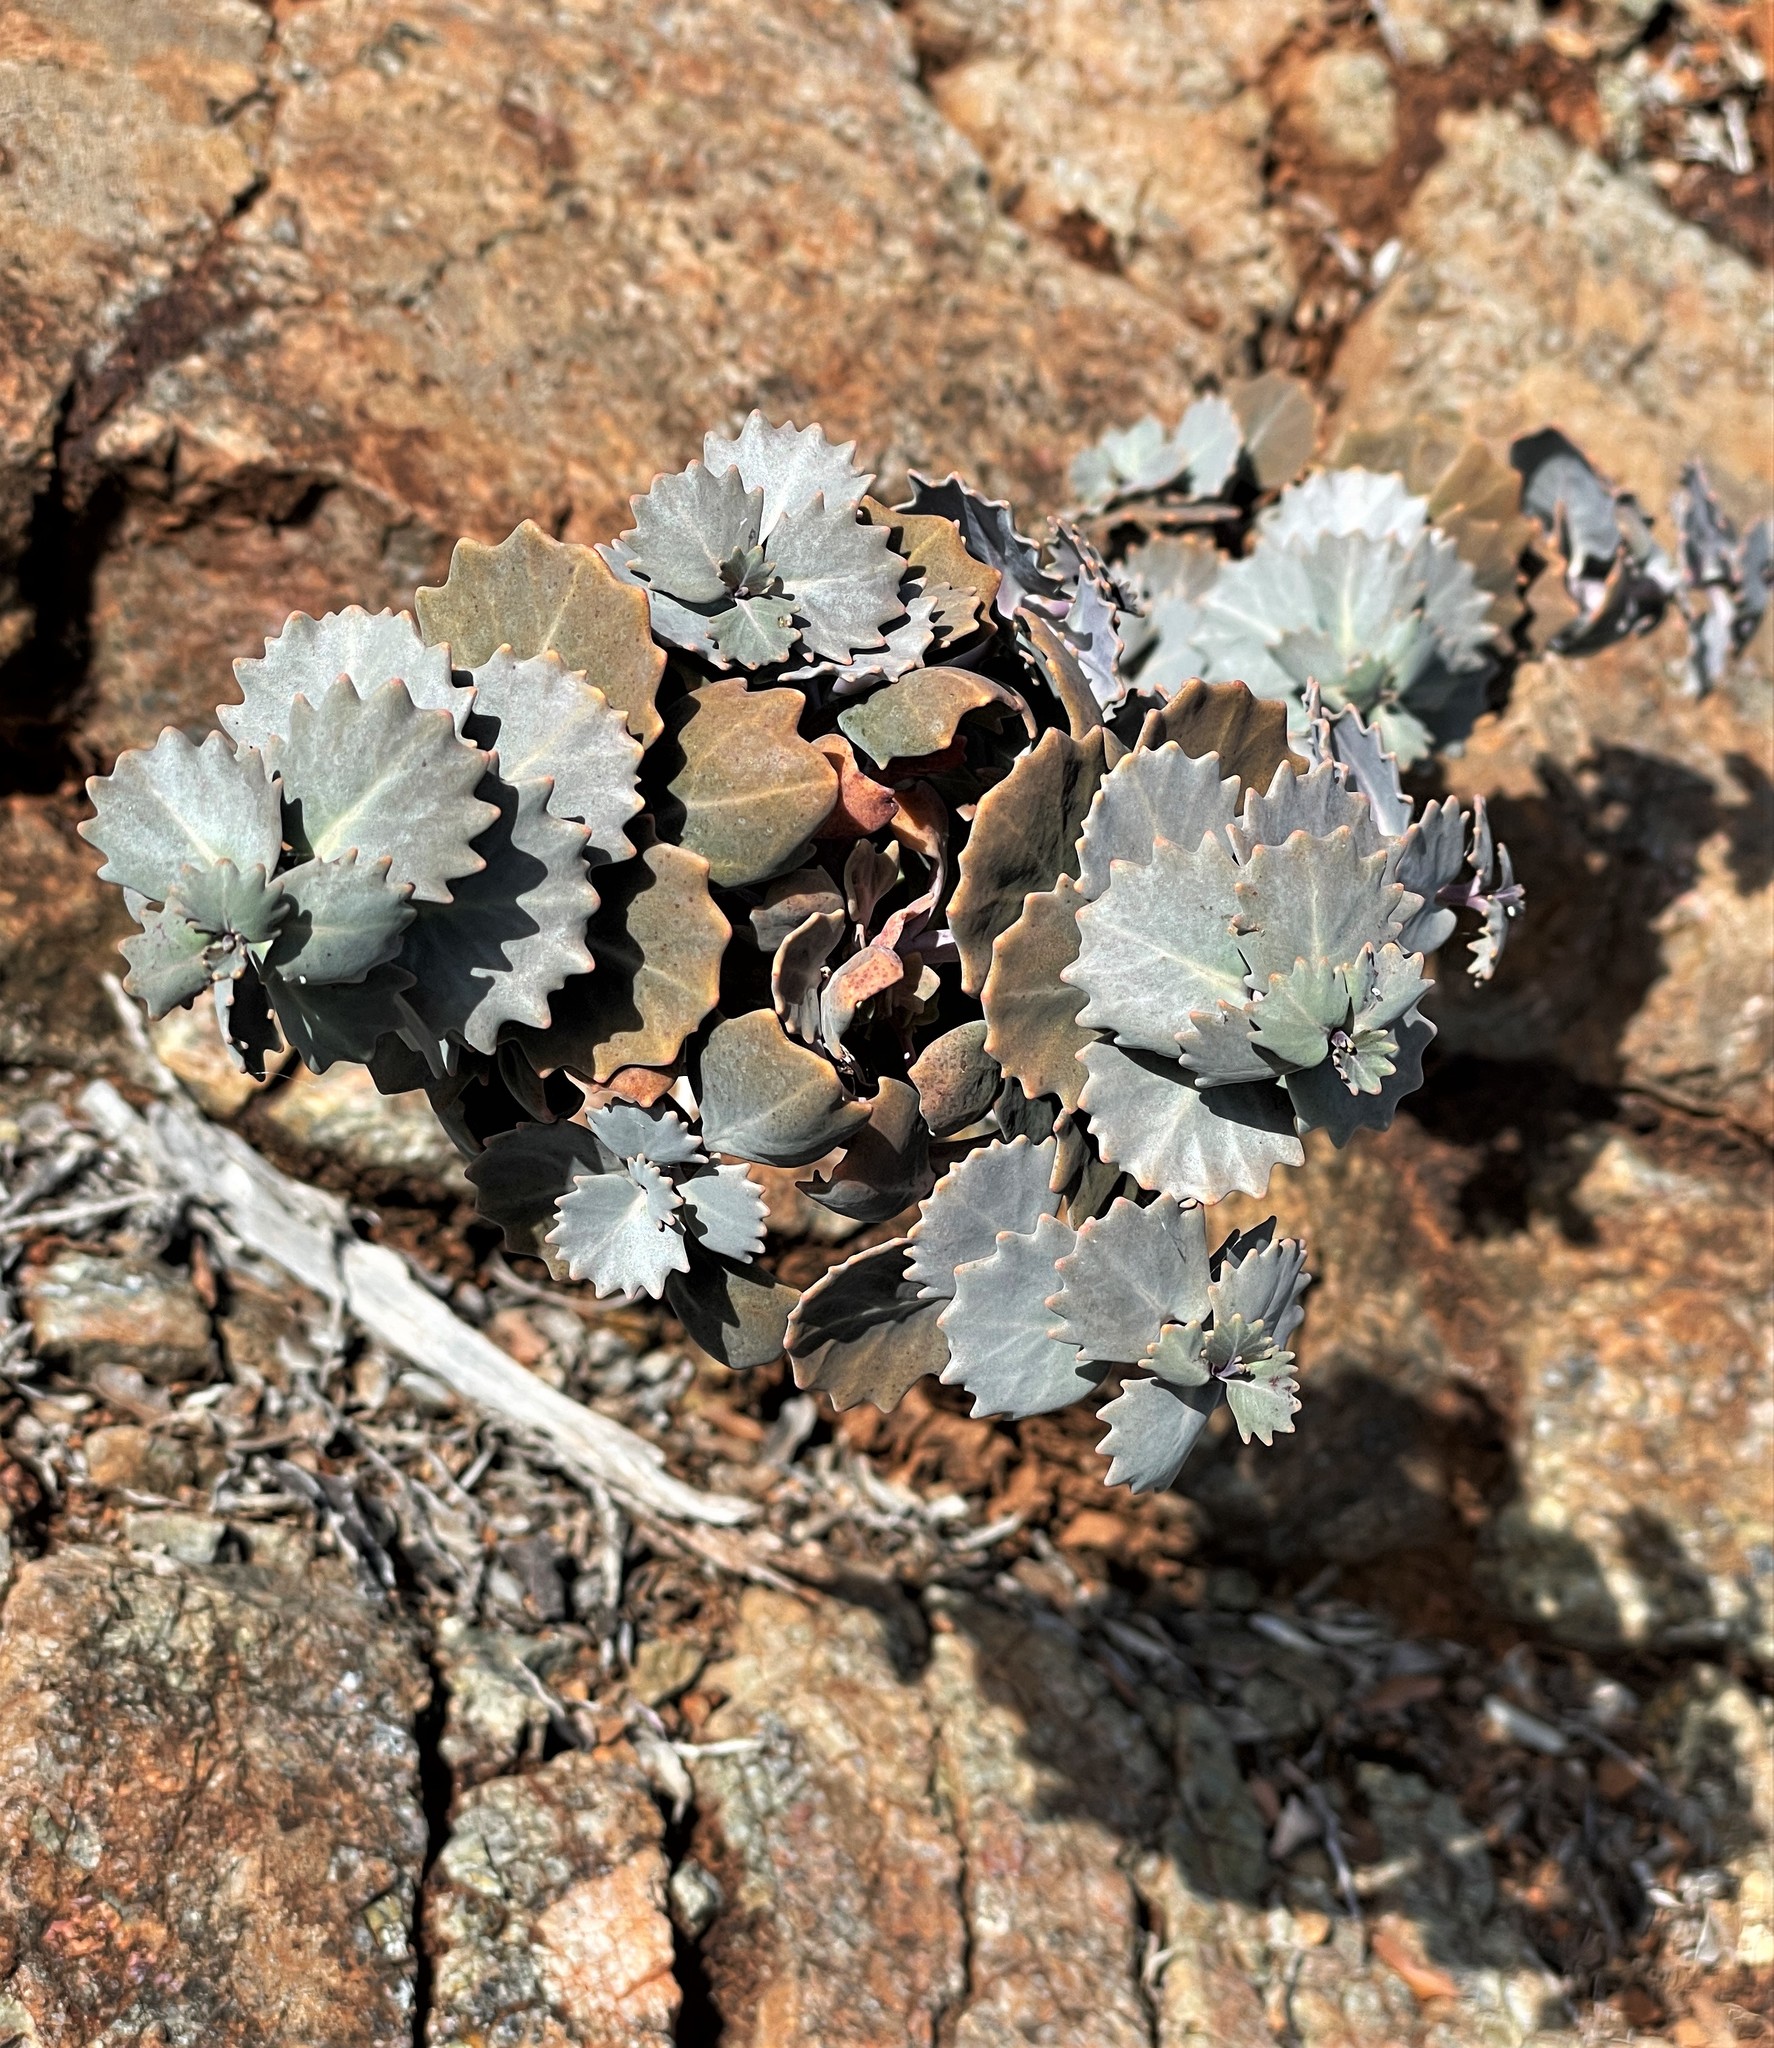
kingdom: Plantae
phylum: Tracheophyta
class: Magnoliopsida
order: Brassicales
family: Brassicaceae
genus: Streptanthus
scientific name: Streptanthus morrisonii
